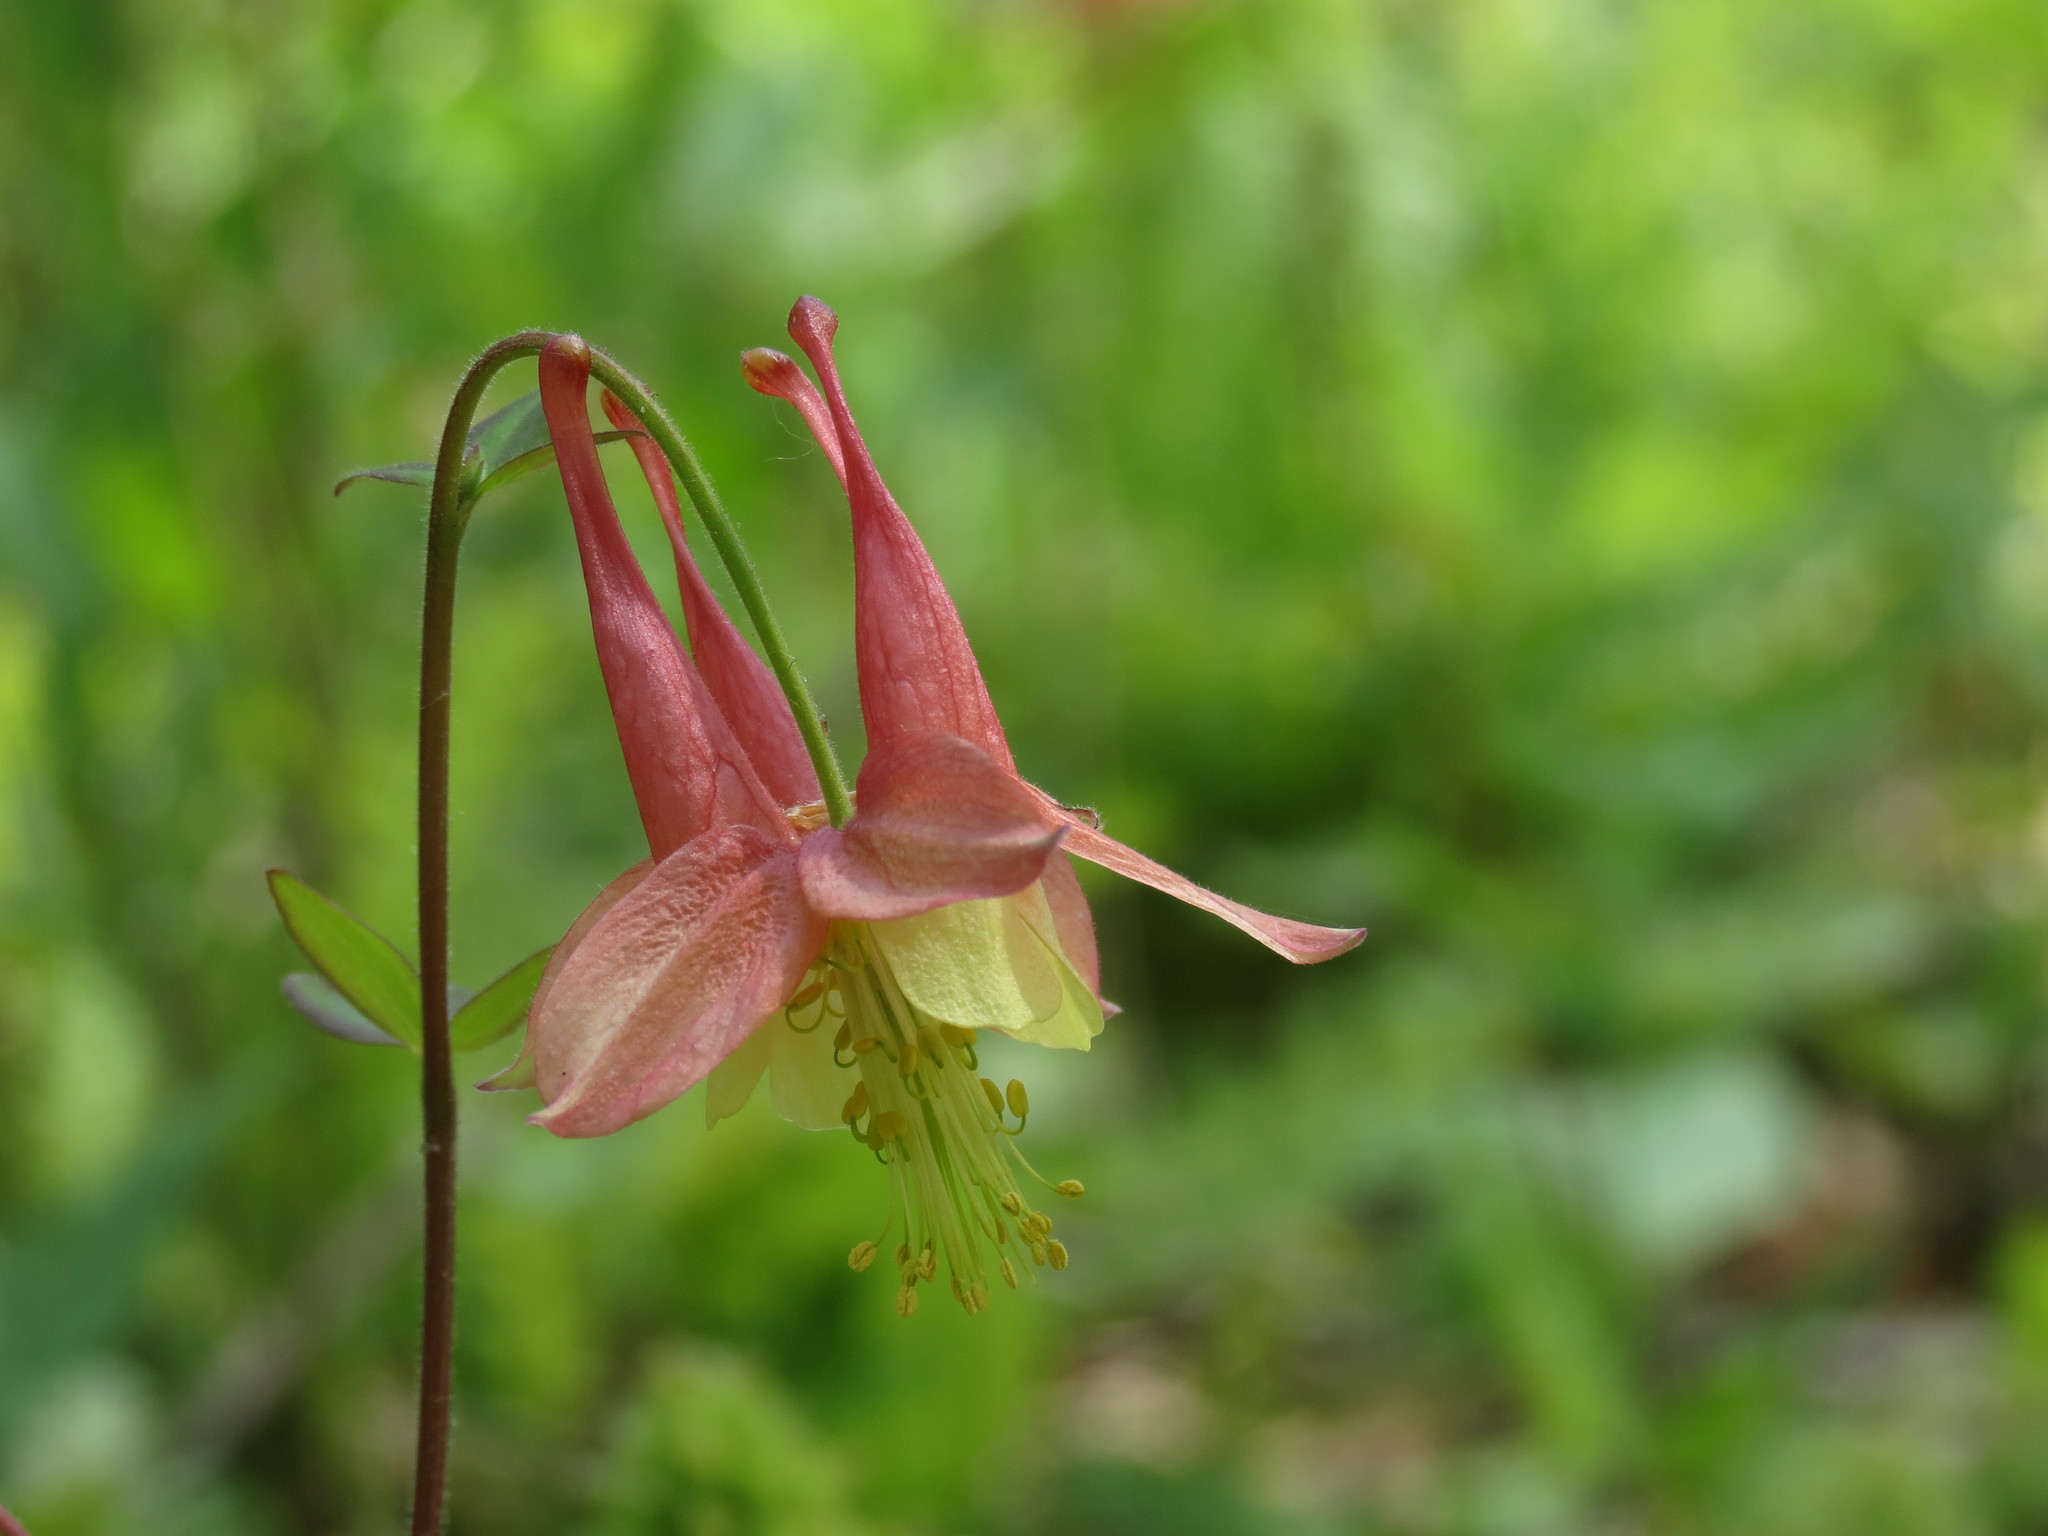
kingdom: Plantae
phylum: Tracheophyta
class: Magnoliopsida
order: Ranunculales
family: Ranunculaceae
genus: Aquilegia
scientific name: Aquilegia canadensis
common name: American columbine
